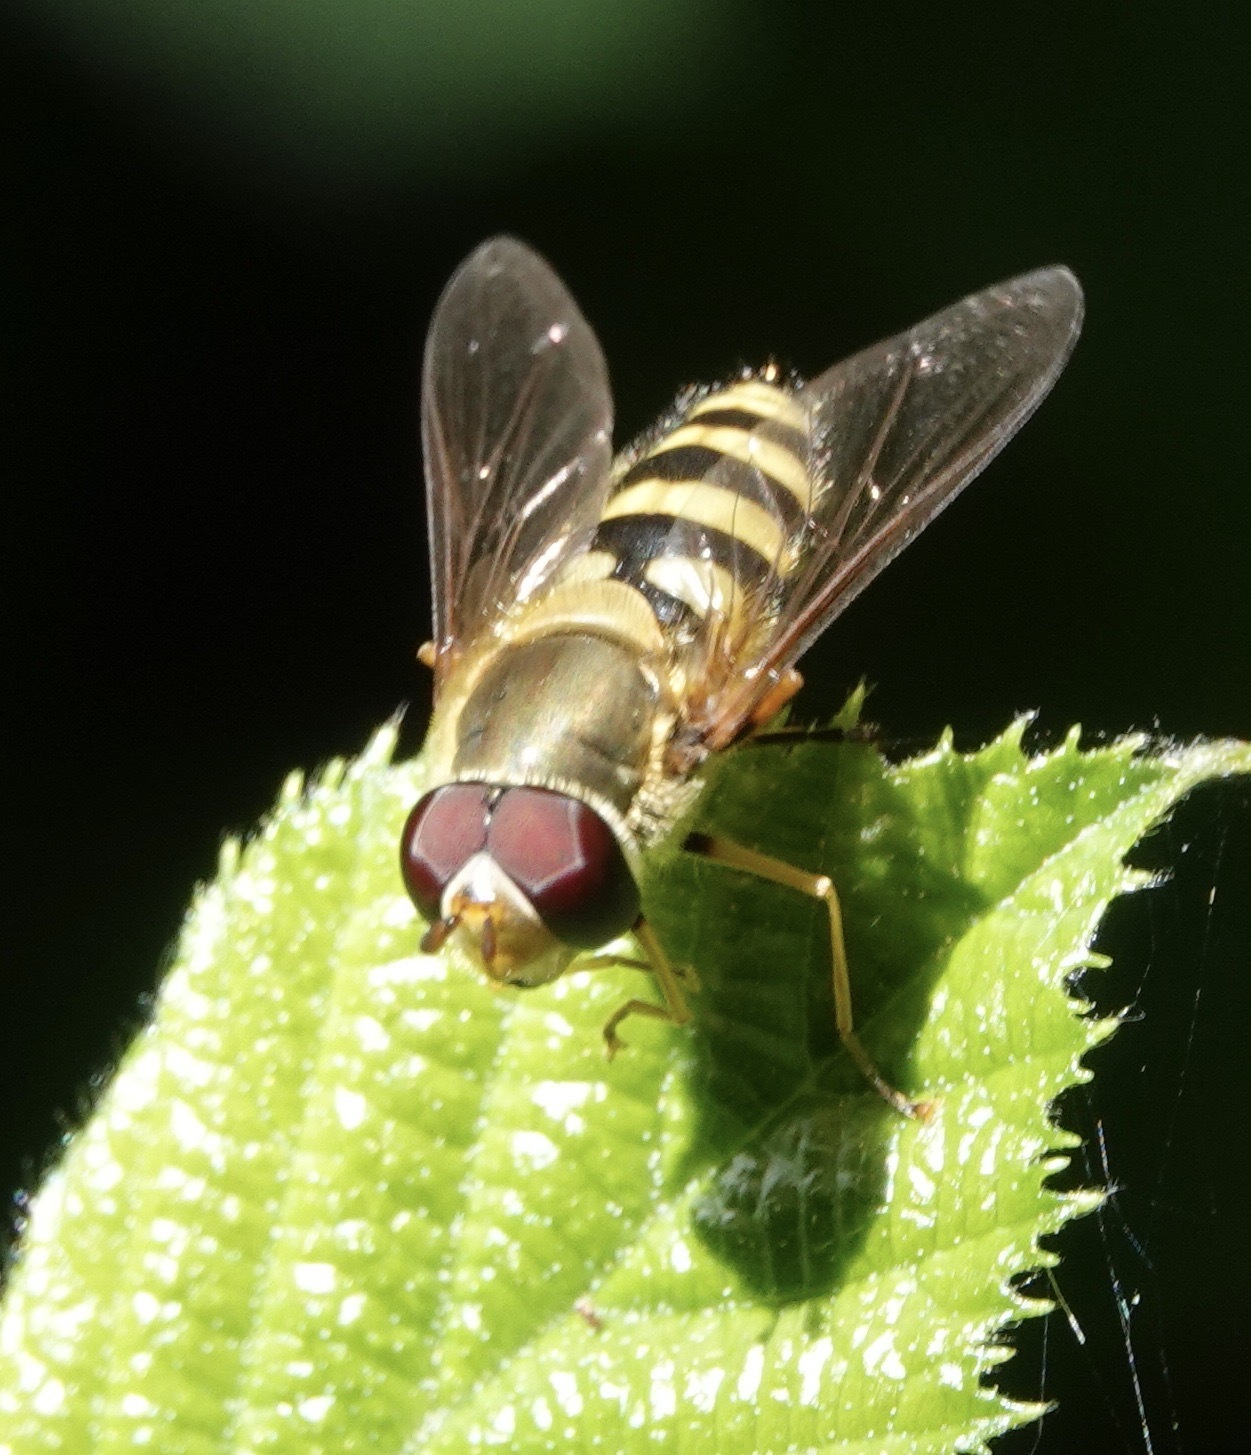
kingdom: Animalia
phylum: Arthropoda
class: Insecta
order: Diptera
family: Syrphidae
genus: Syrphus
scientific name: Syrphus
